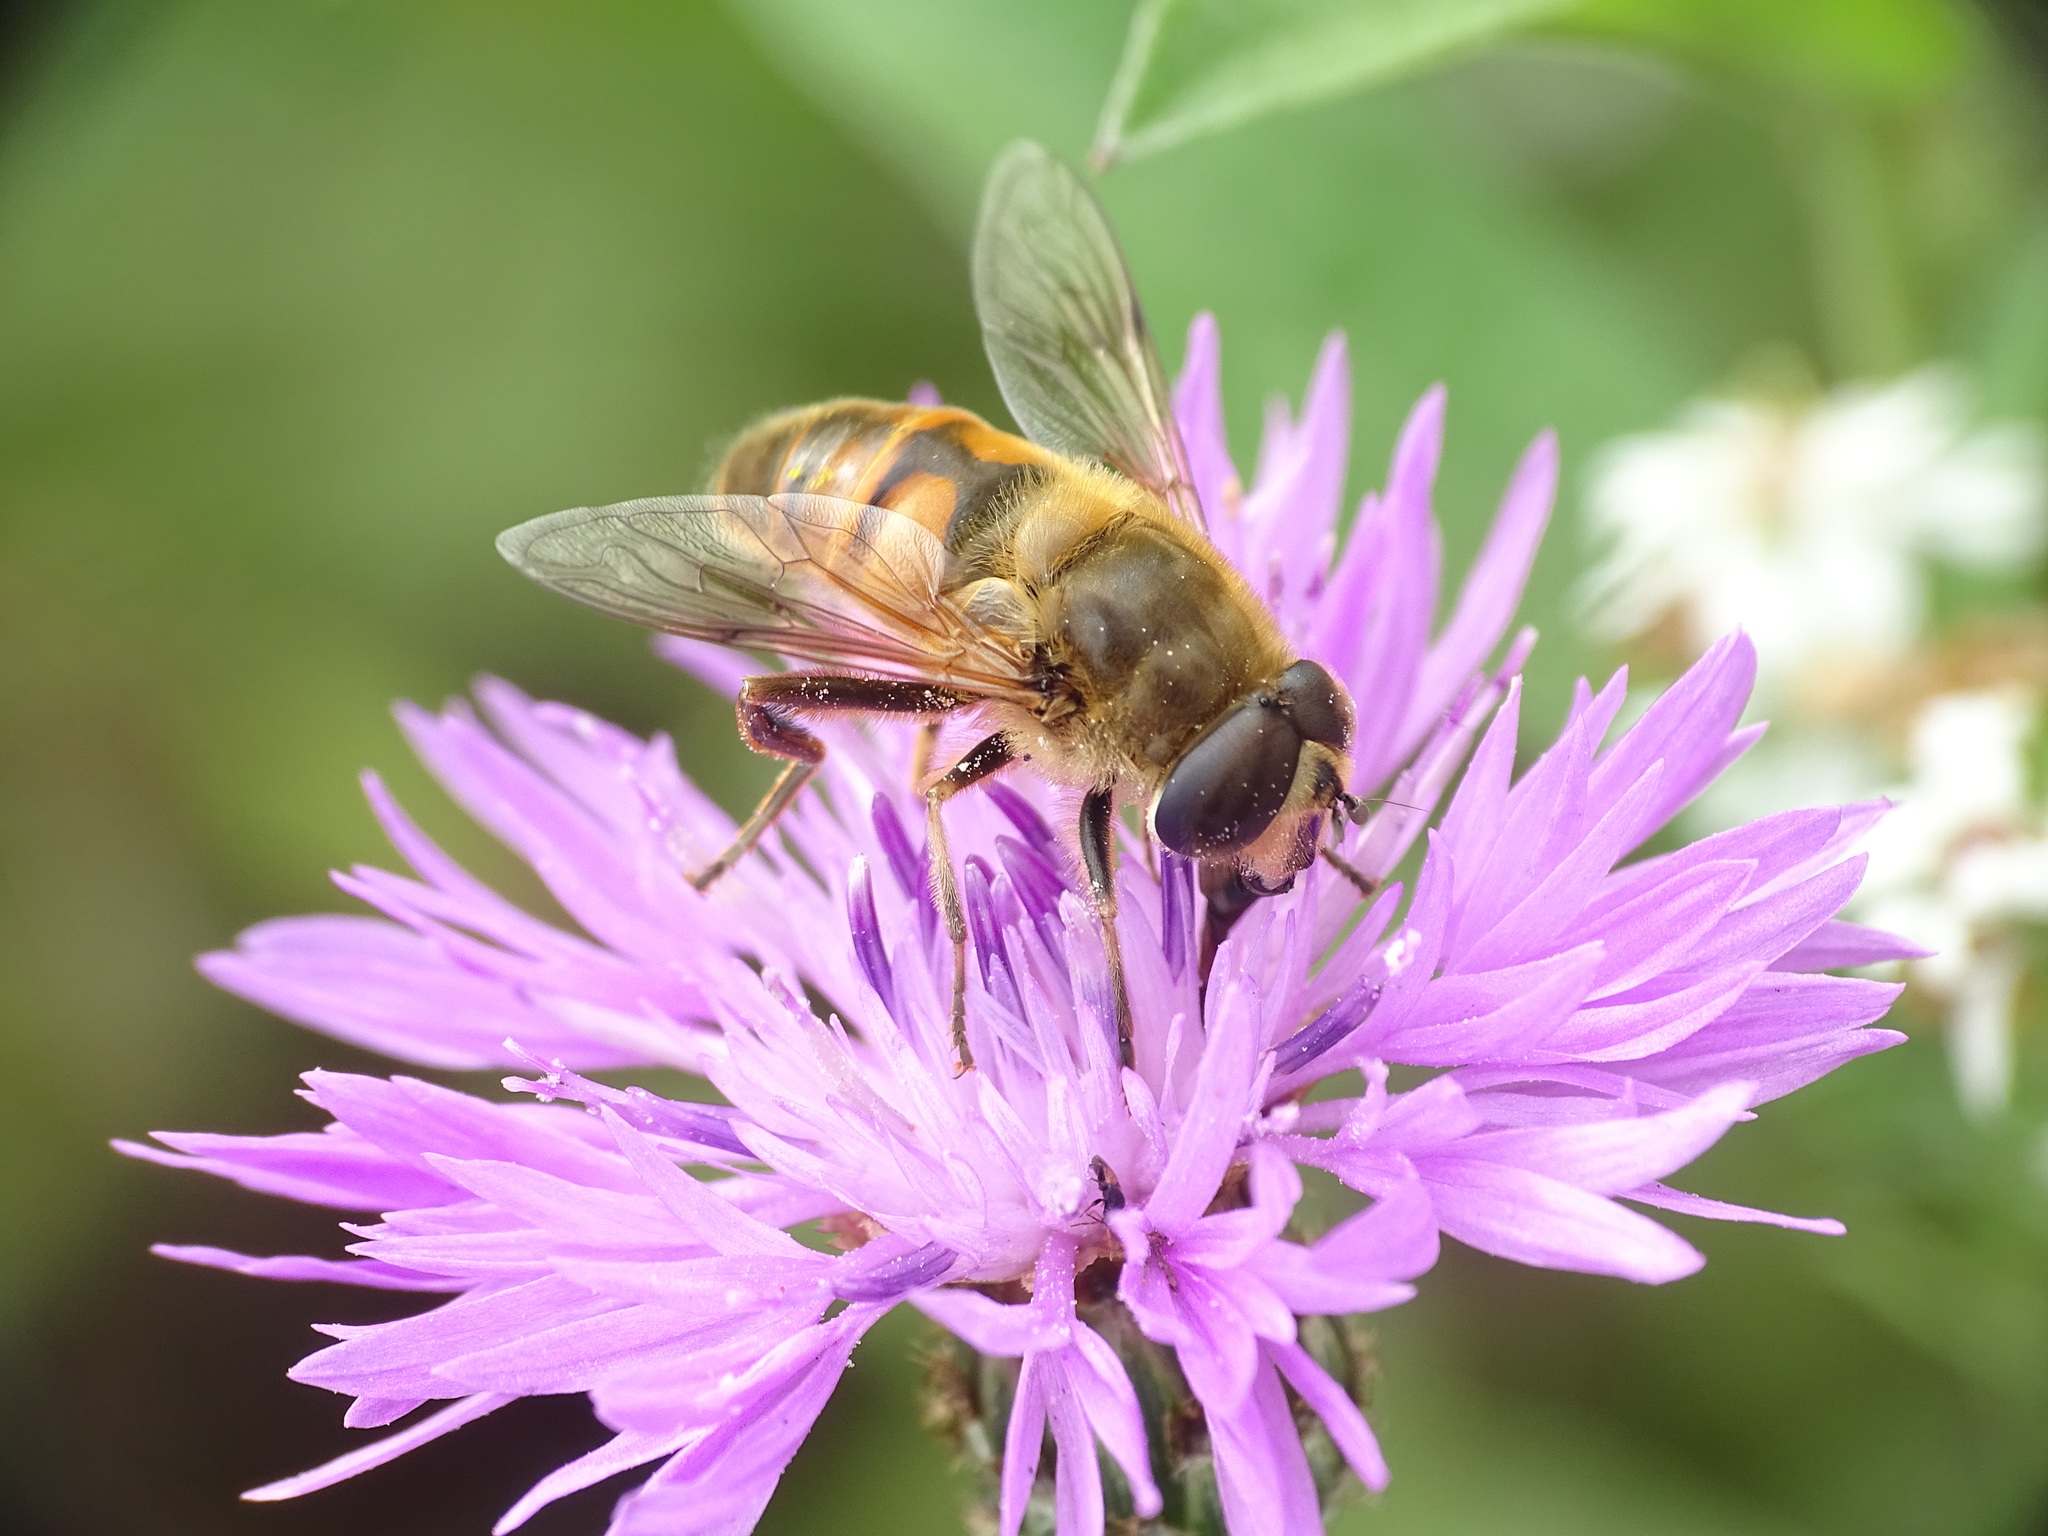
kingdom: Animalia
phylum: Arthropoda
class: Insecta
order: Diptera
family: Syrphidae
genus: Eristalis
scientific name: Eristalis tenax
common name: Drone fly
